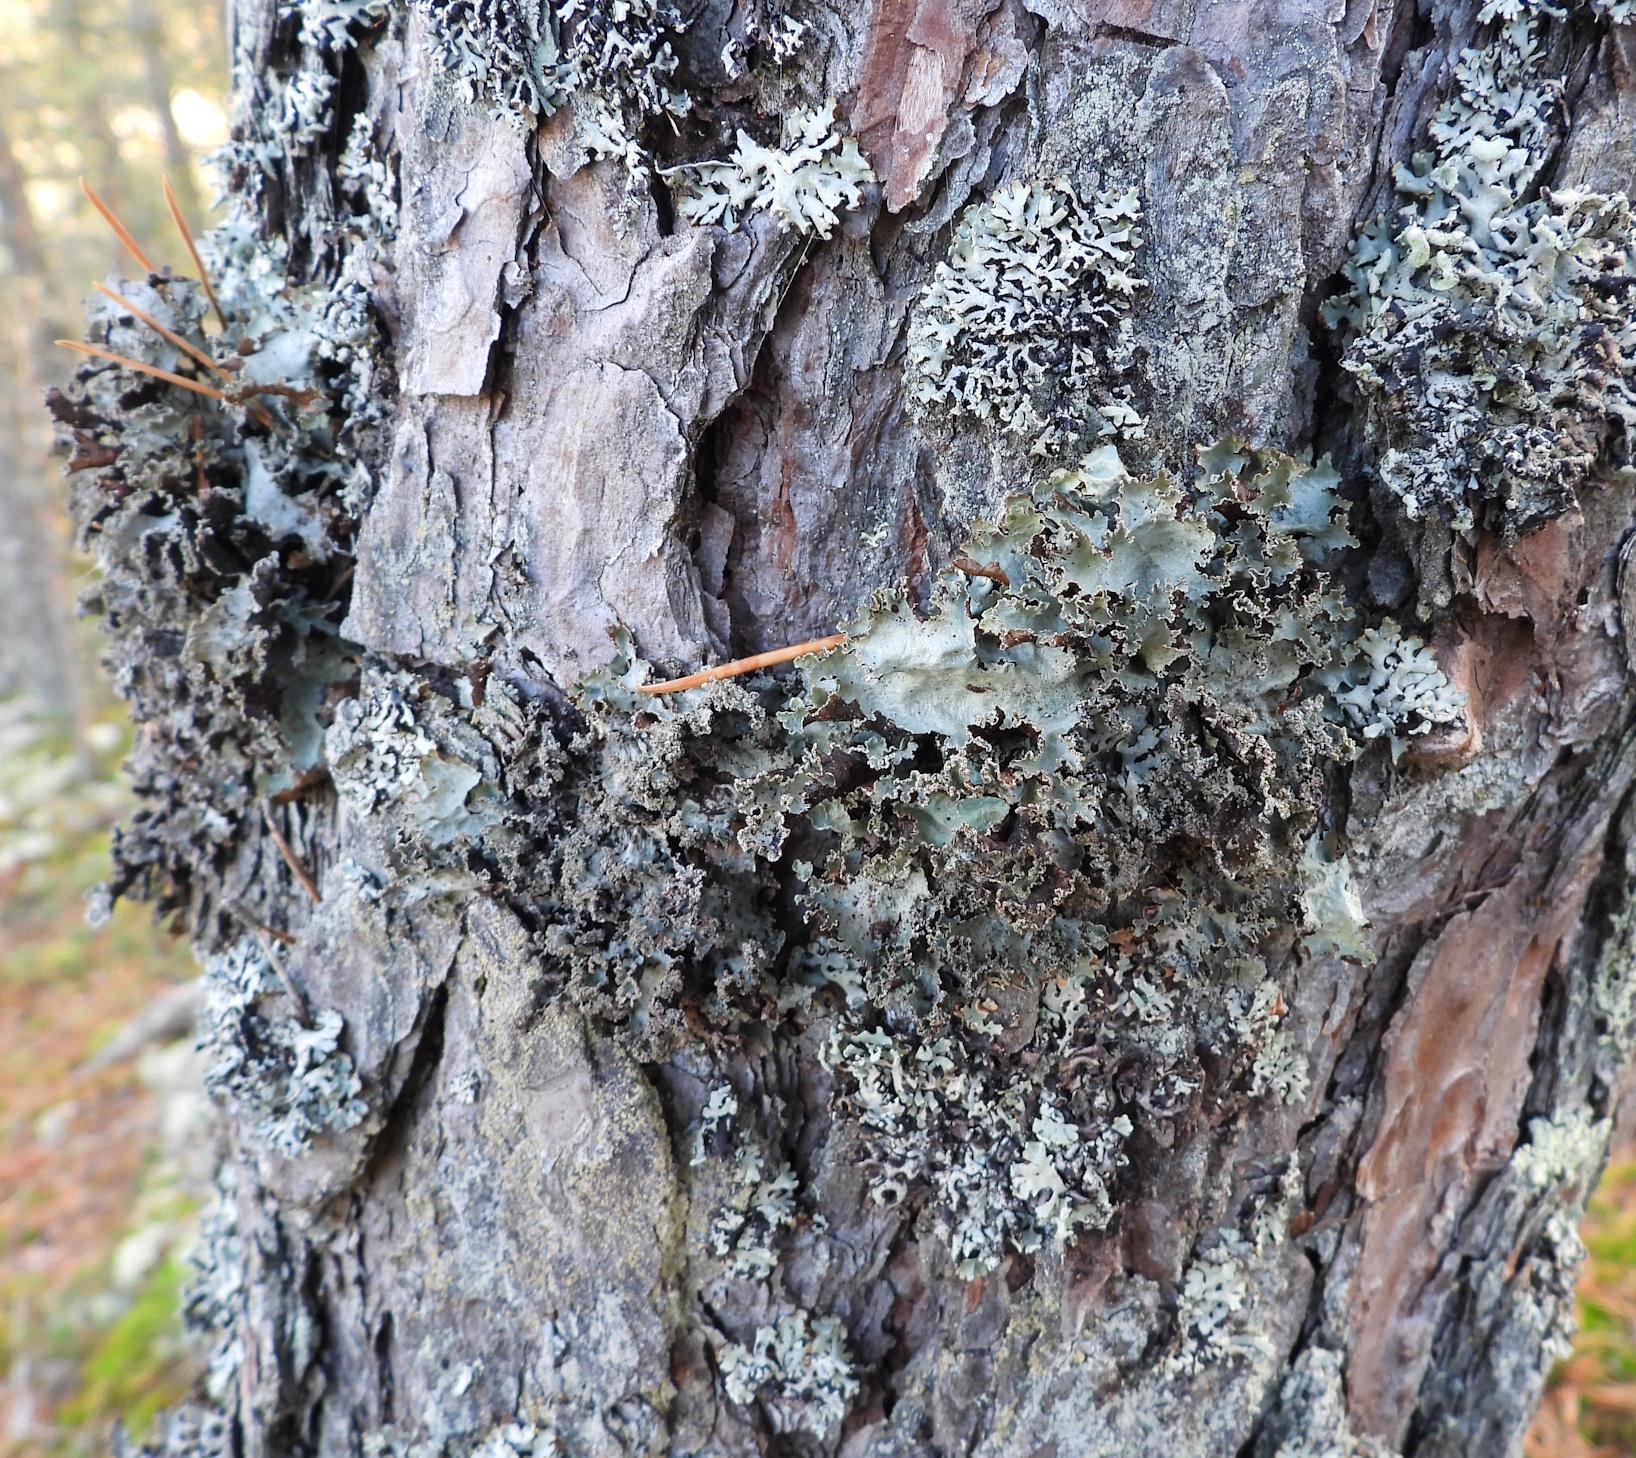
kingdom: Fungi
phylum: Ascomycota
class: Lecanoromycetes
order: Lecanorales
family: Parmeliaceae
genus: Platismatia
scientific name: Platismatia glauca
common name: Varied rag lichen
